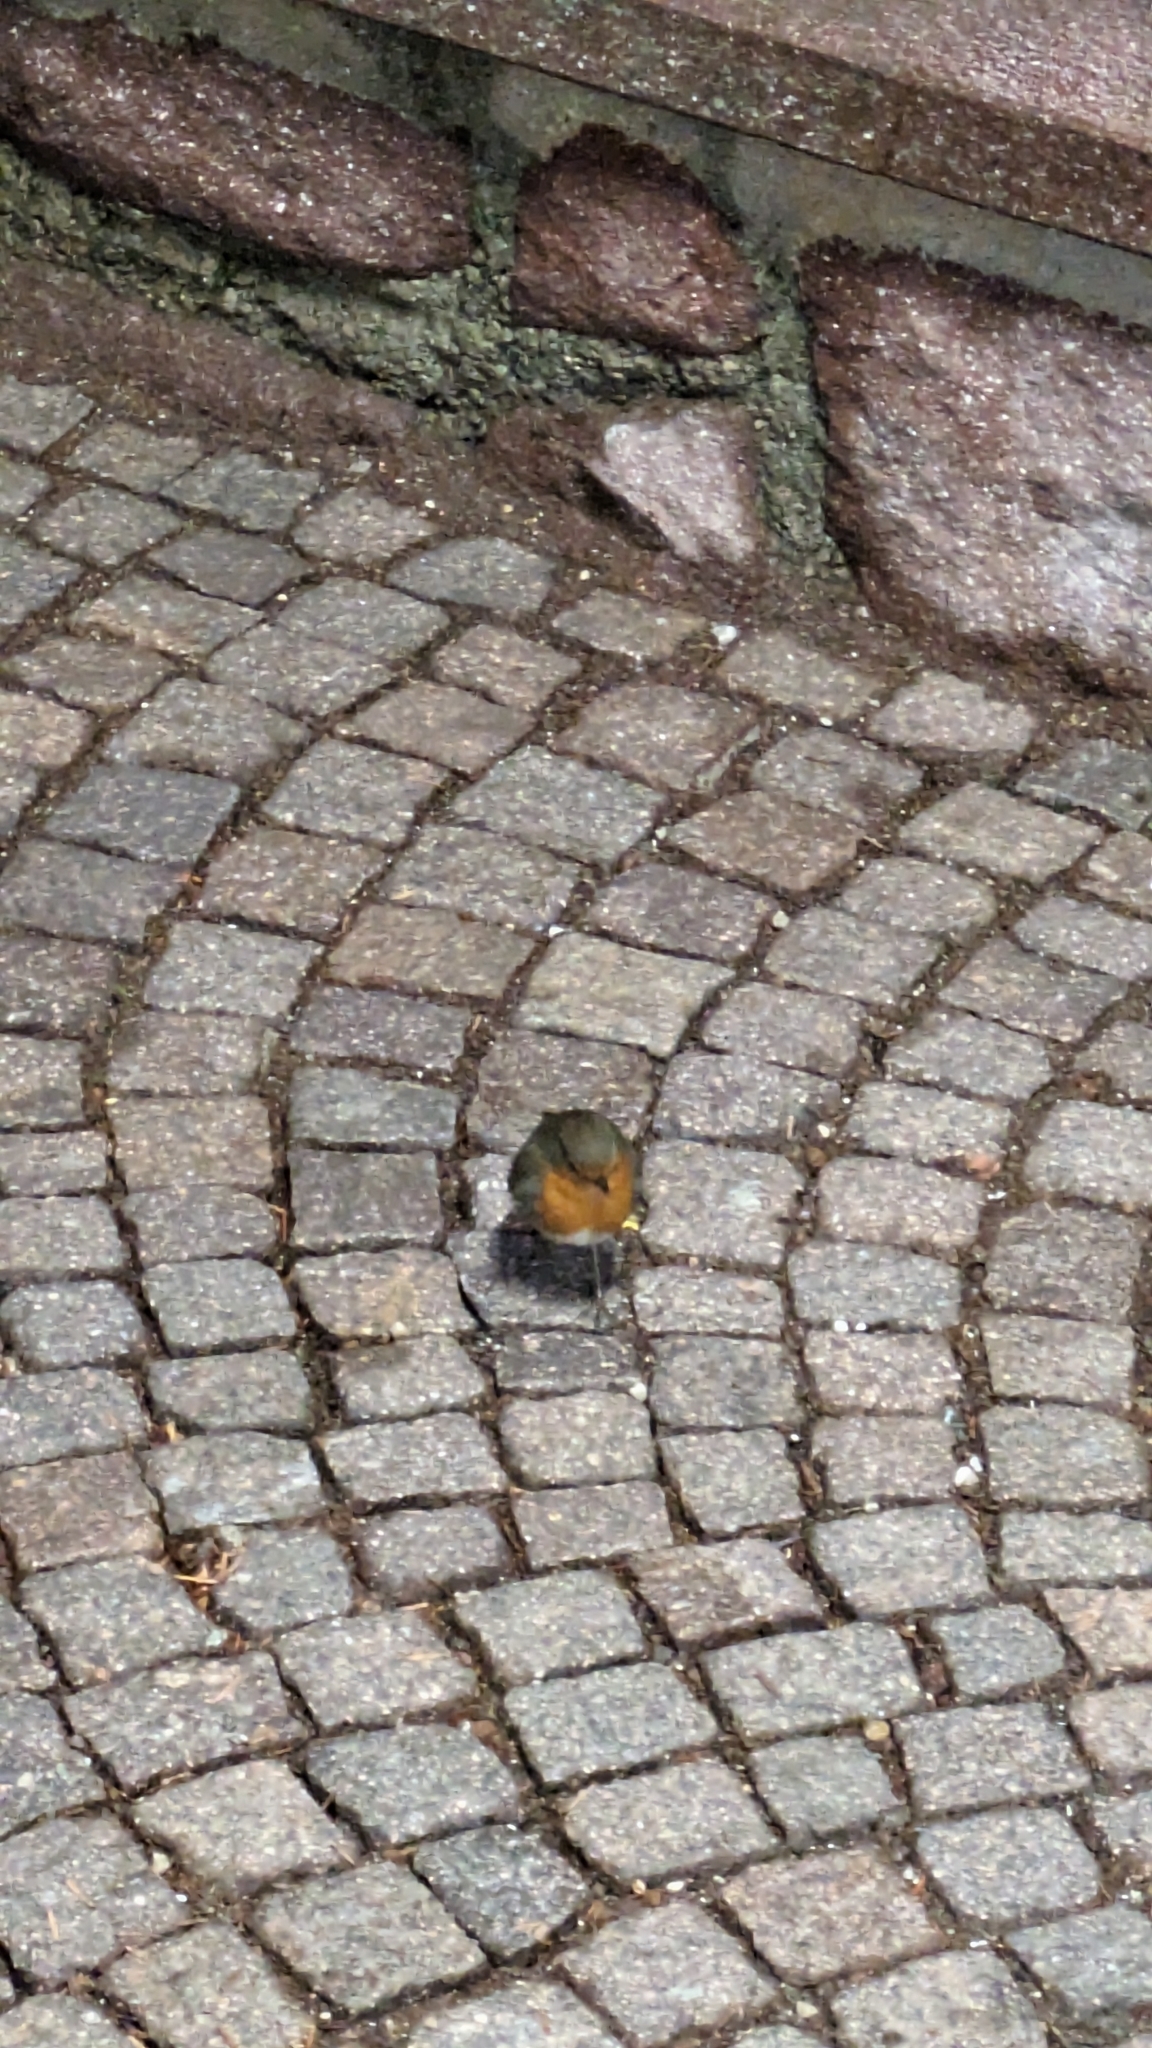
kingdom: Animalia
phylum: Chordata
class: Aves
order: Passeriformes
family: Muscicapidae
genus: Erithacus
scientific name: Erithacus rubecula
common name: European robin
